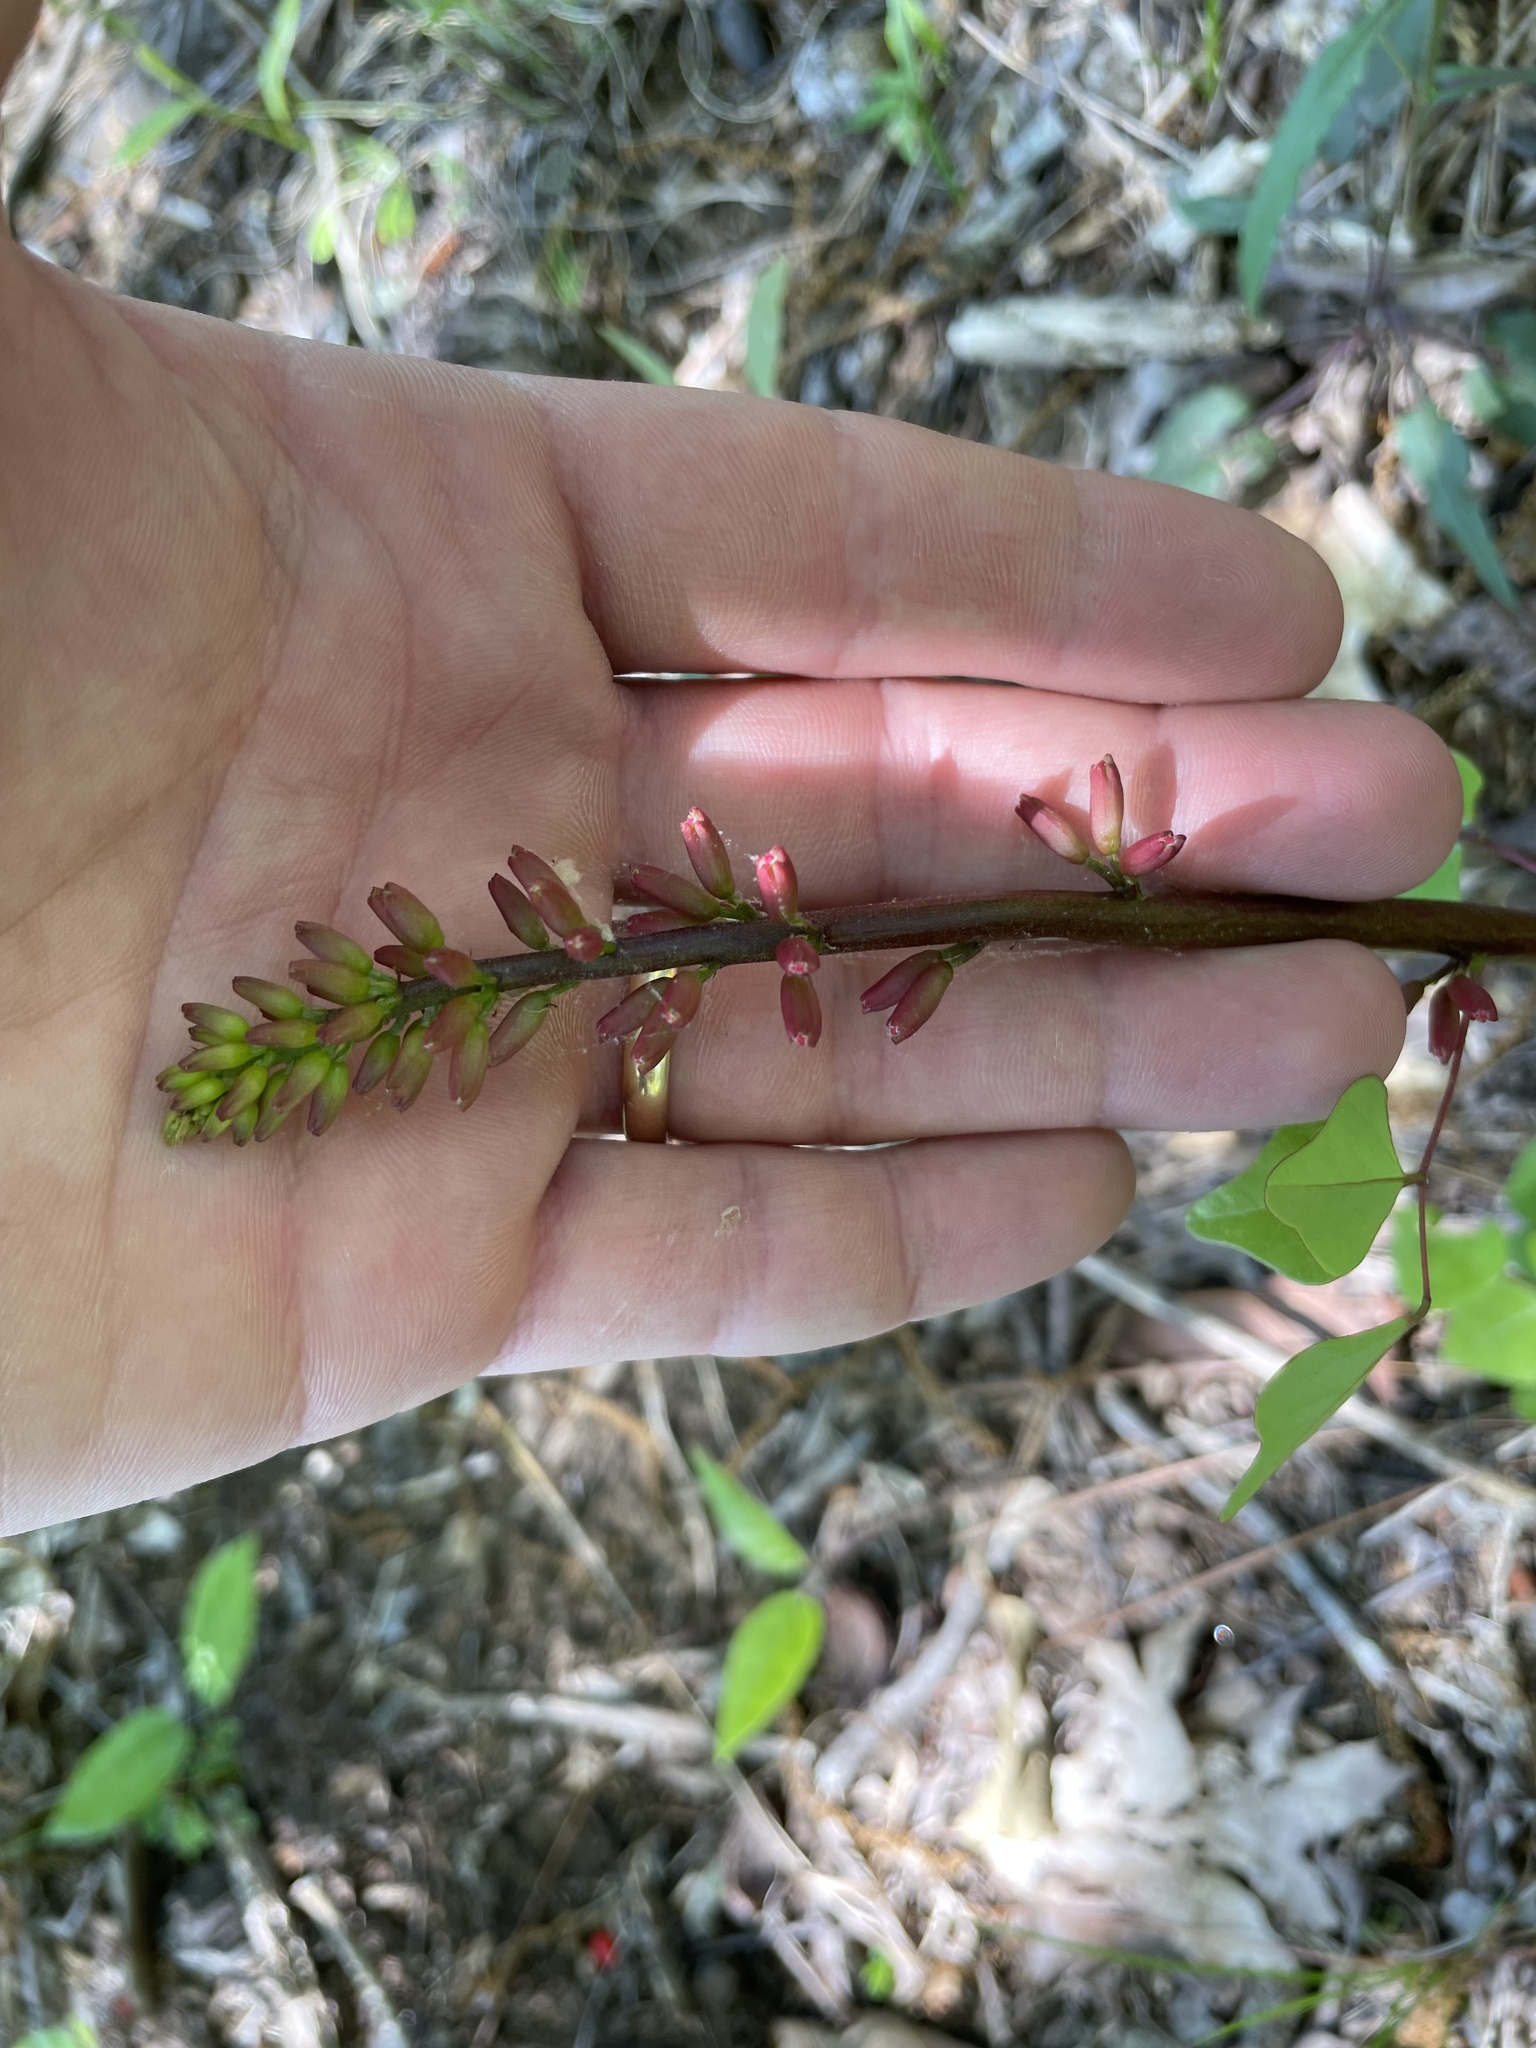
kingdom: Plantae
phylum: Tracheophyta
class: Magnoliopsida
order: Fabales
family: Fabaceae
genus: Erythrina
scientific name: Erythrina herbacea
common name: Coral-bean
